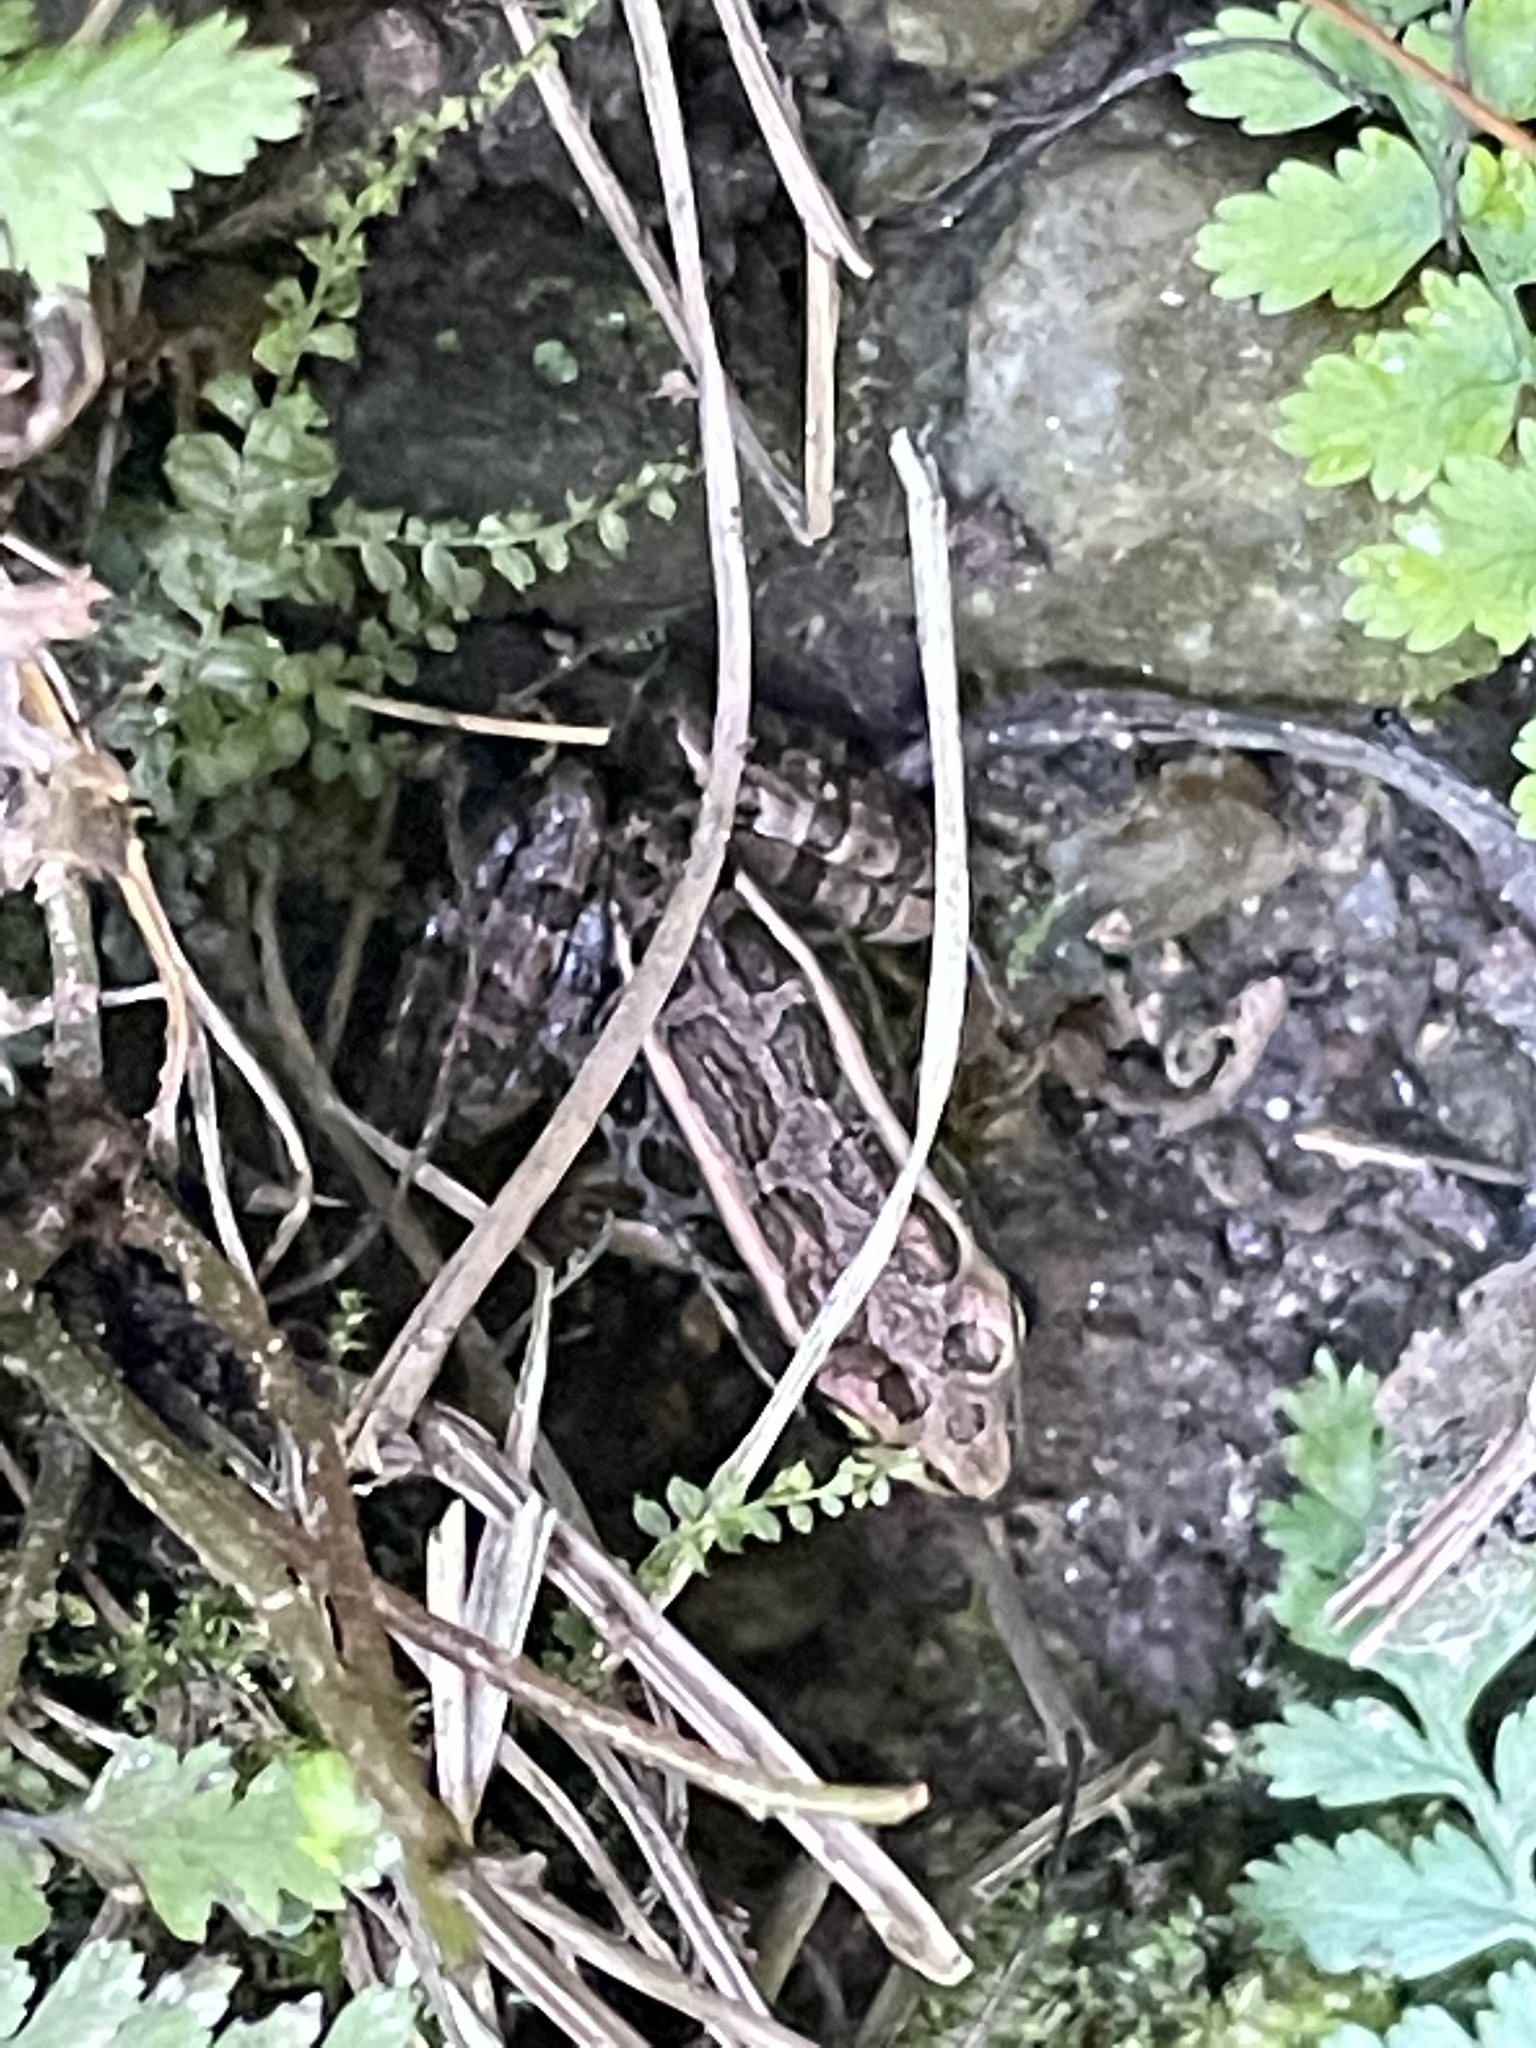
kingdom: Animalia
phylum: Chordata
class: Amphibia
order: Anura
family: Ranidae
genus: Lithobates
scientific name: Lithobates palustris
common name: Pickerel frog
